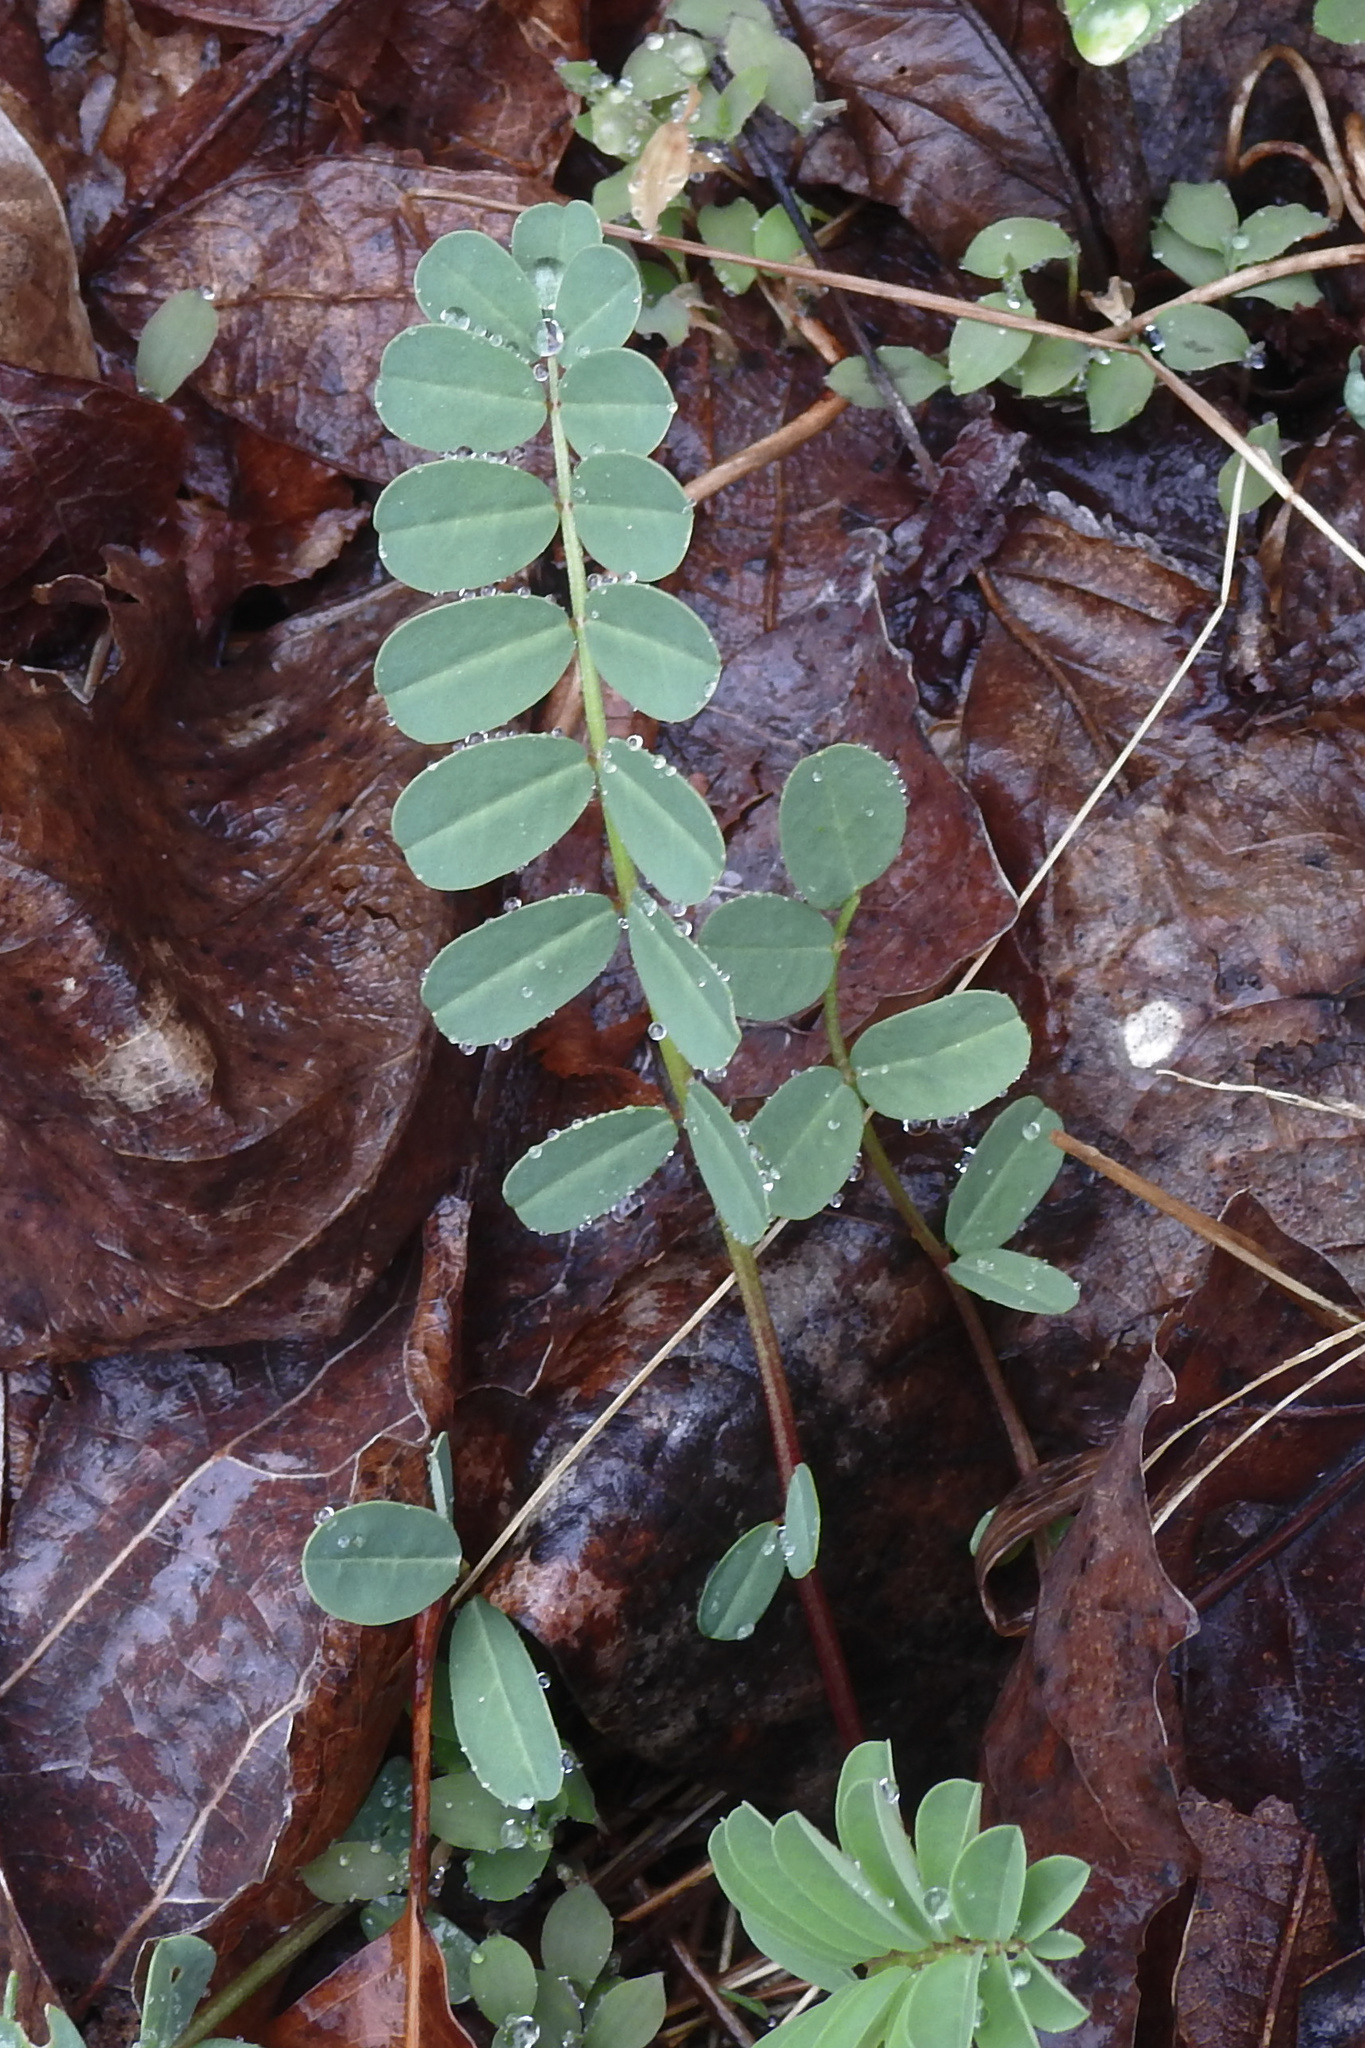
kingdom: Plantae
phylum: Tracheophyta
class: Magnoliopsida
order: Fabales
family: Fabaceae
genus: Coronilla
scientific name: Coronilla varia
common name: Crownvetch
